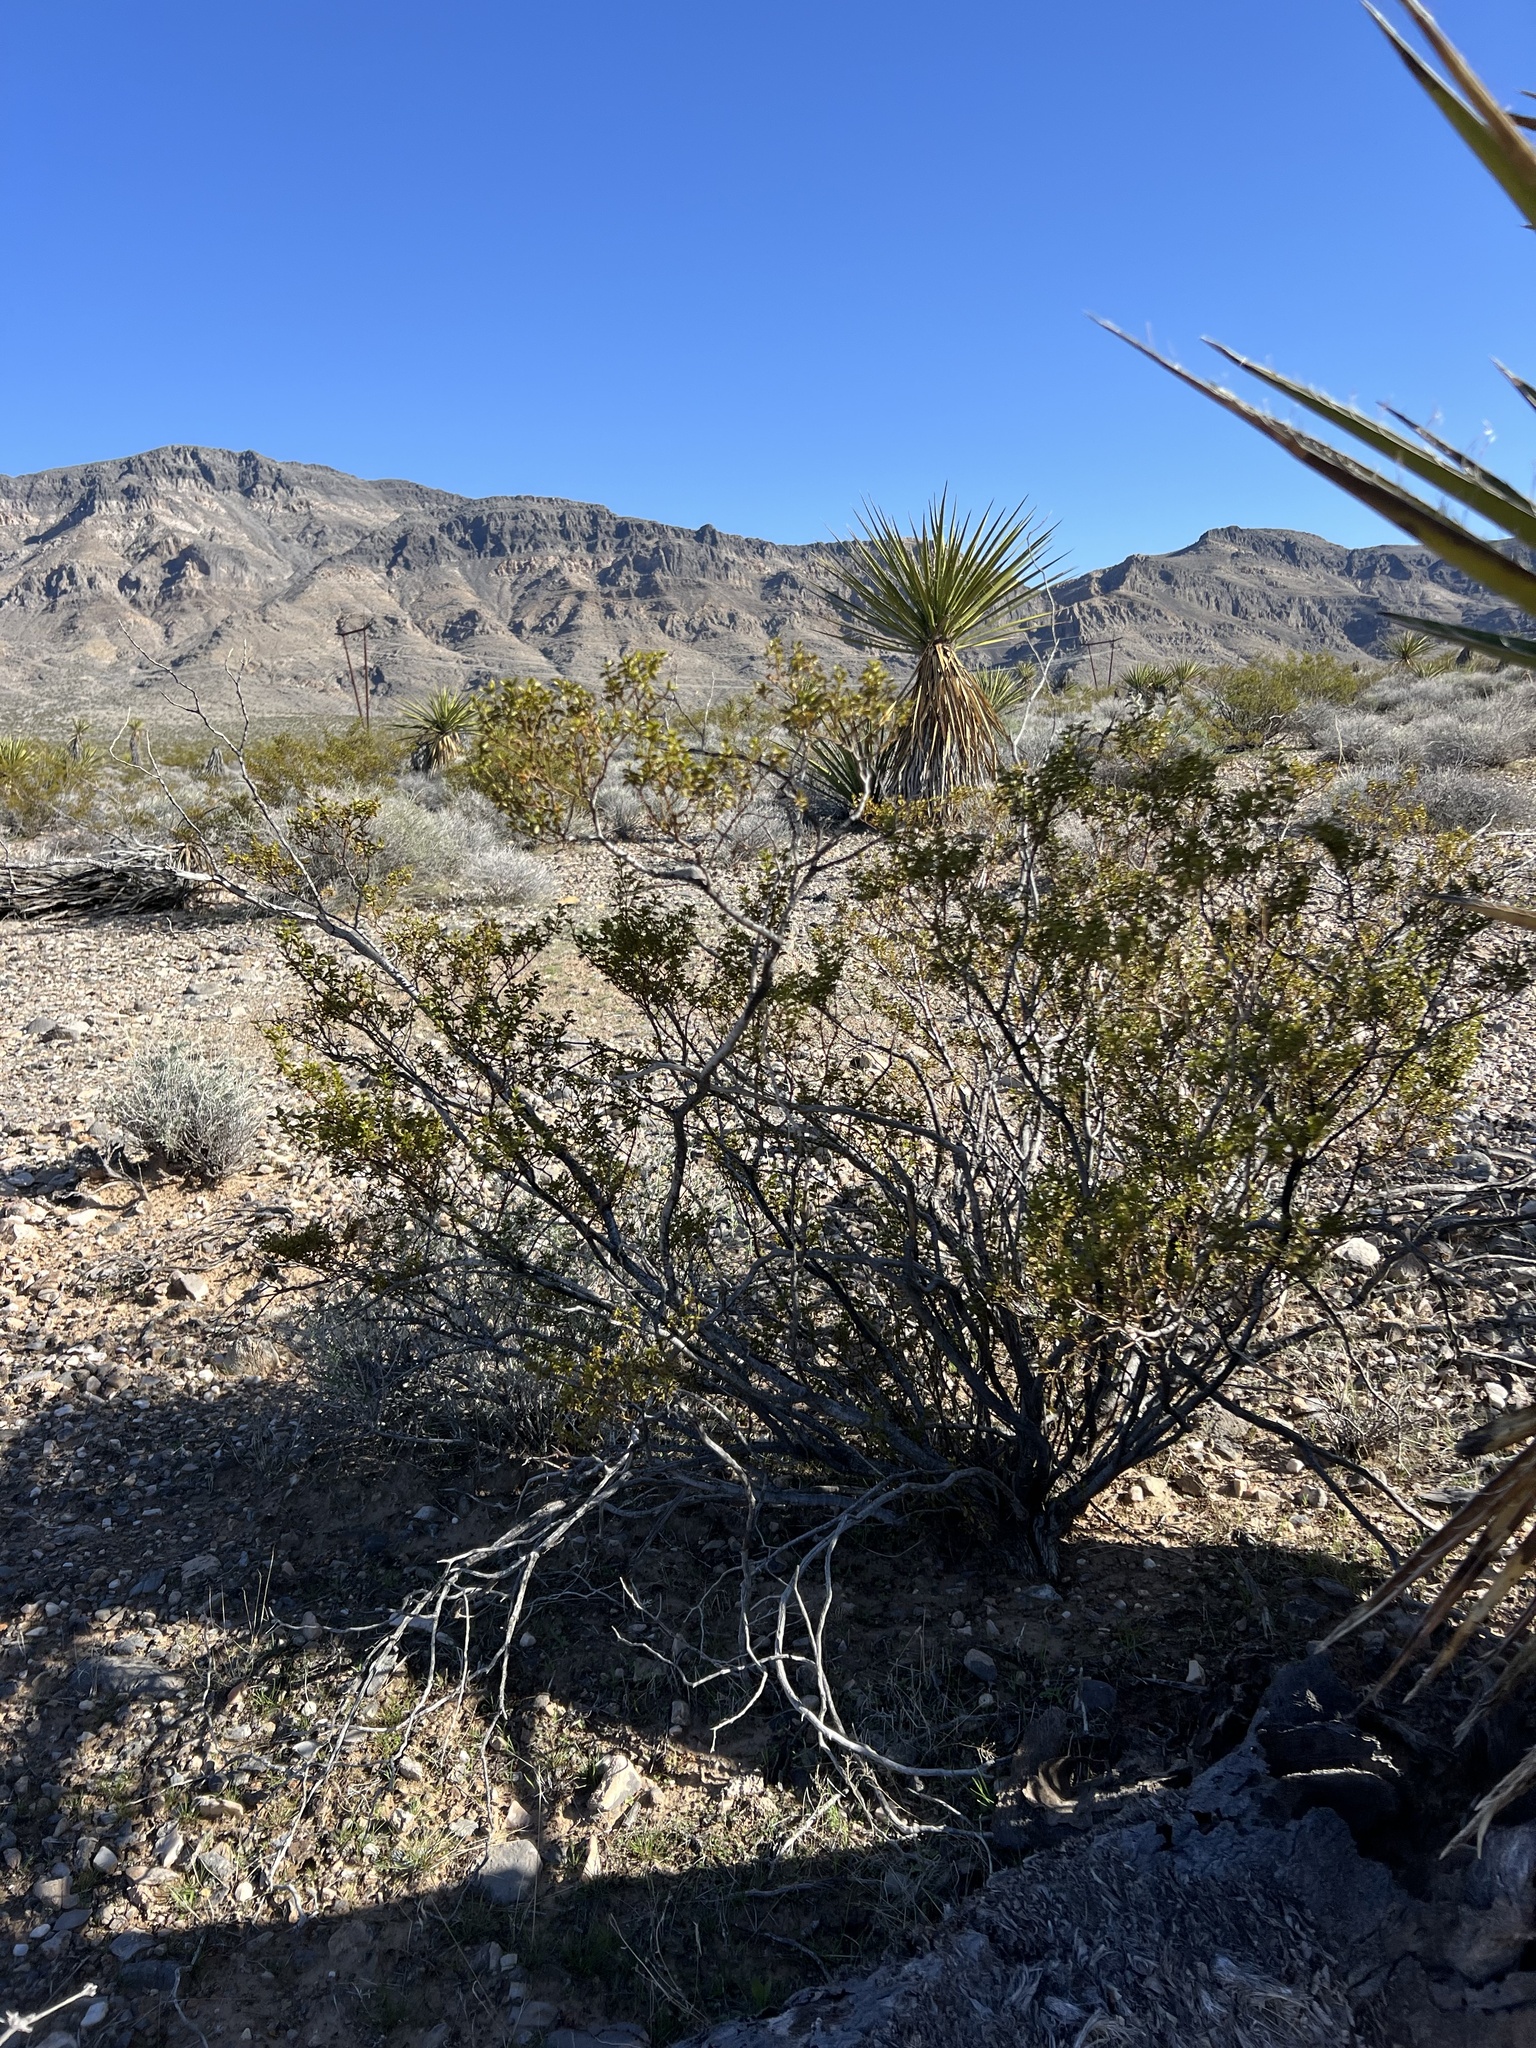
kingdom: Plantae
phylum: Tracheophyta
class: Magnoliopsida
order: Zygophyllales
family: Zygophyllaceae
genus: Larrea
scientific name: Larrea tridentata
